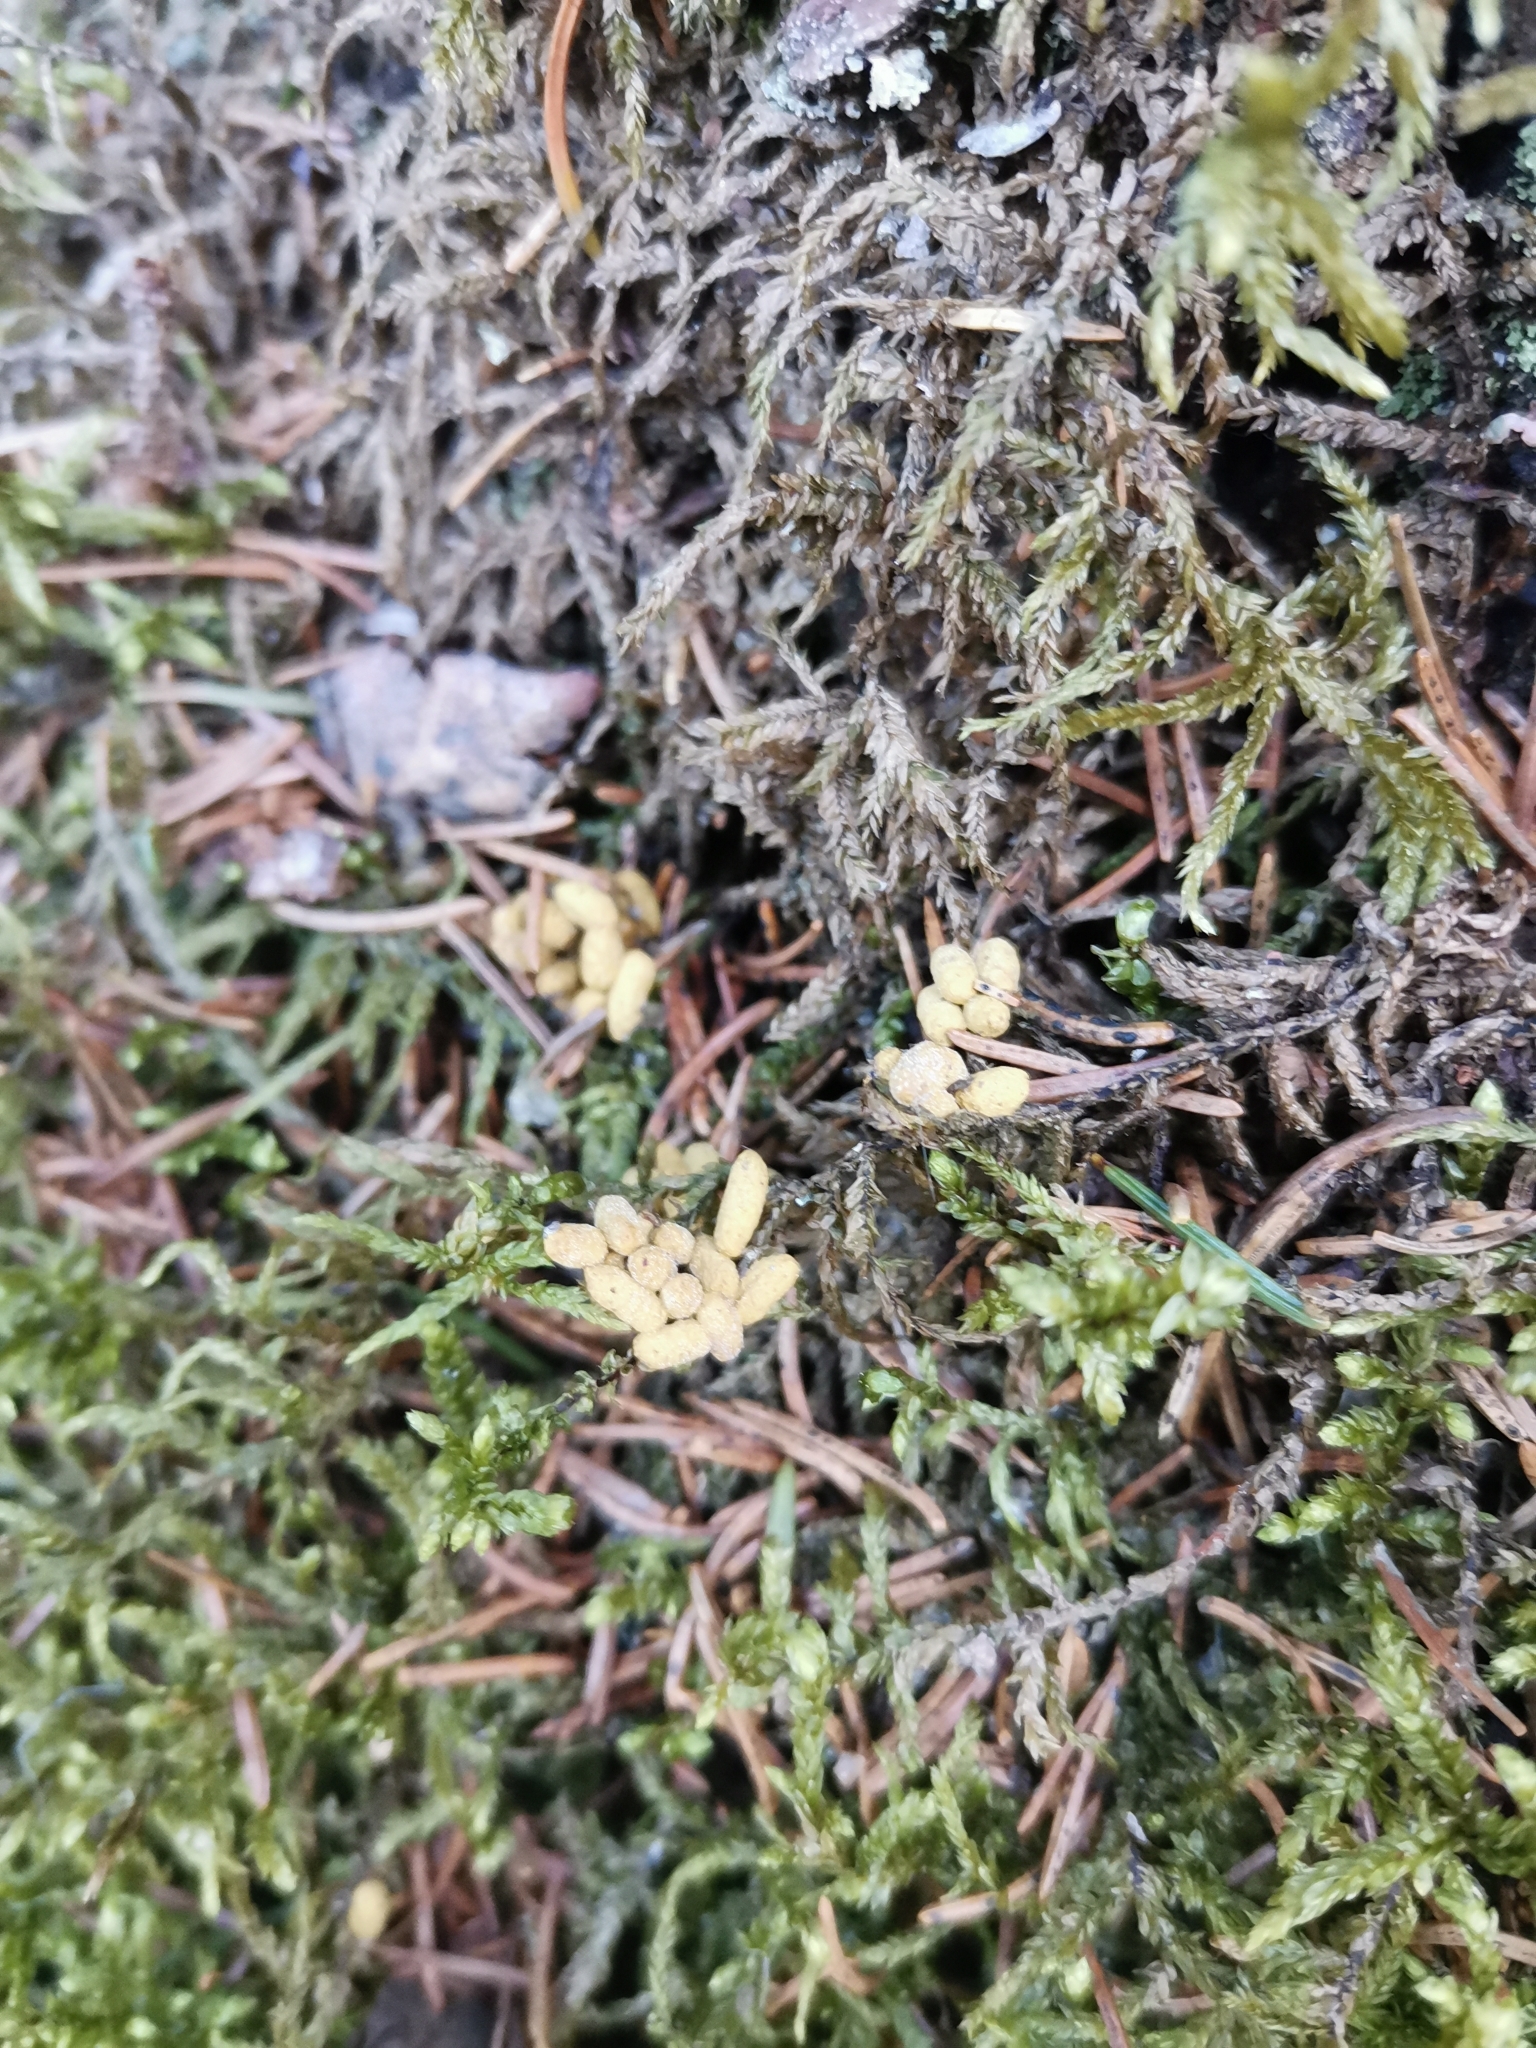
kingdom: Animalia
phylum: Chordata
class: Mammalia
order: Rodentia
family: Sciuridae
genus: Pteromys
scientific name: Pteromys volans
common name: Siberian flying squirrel
